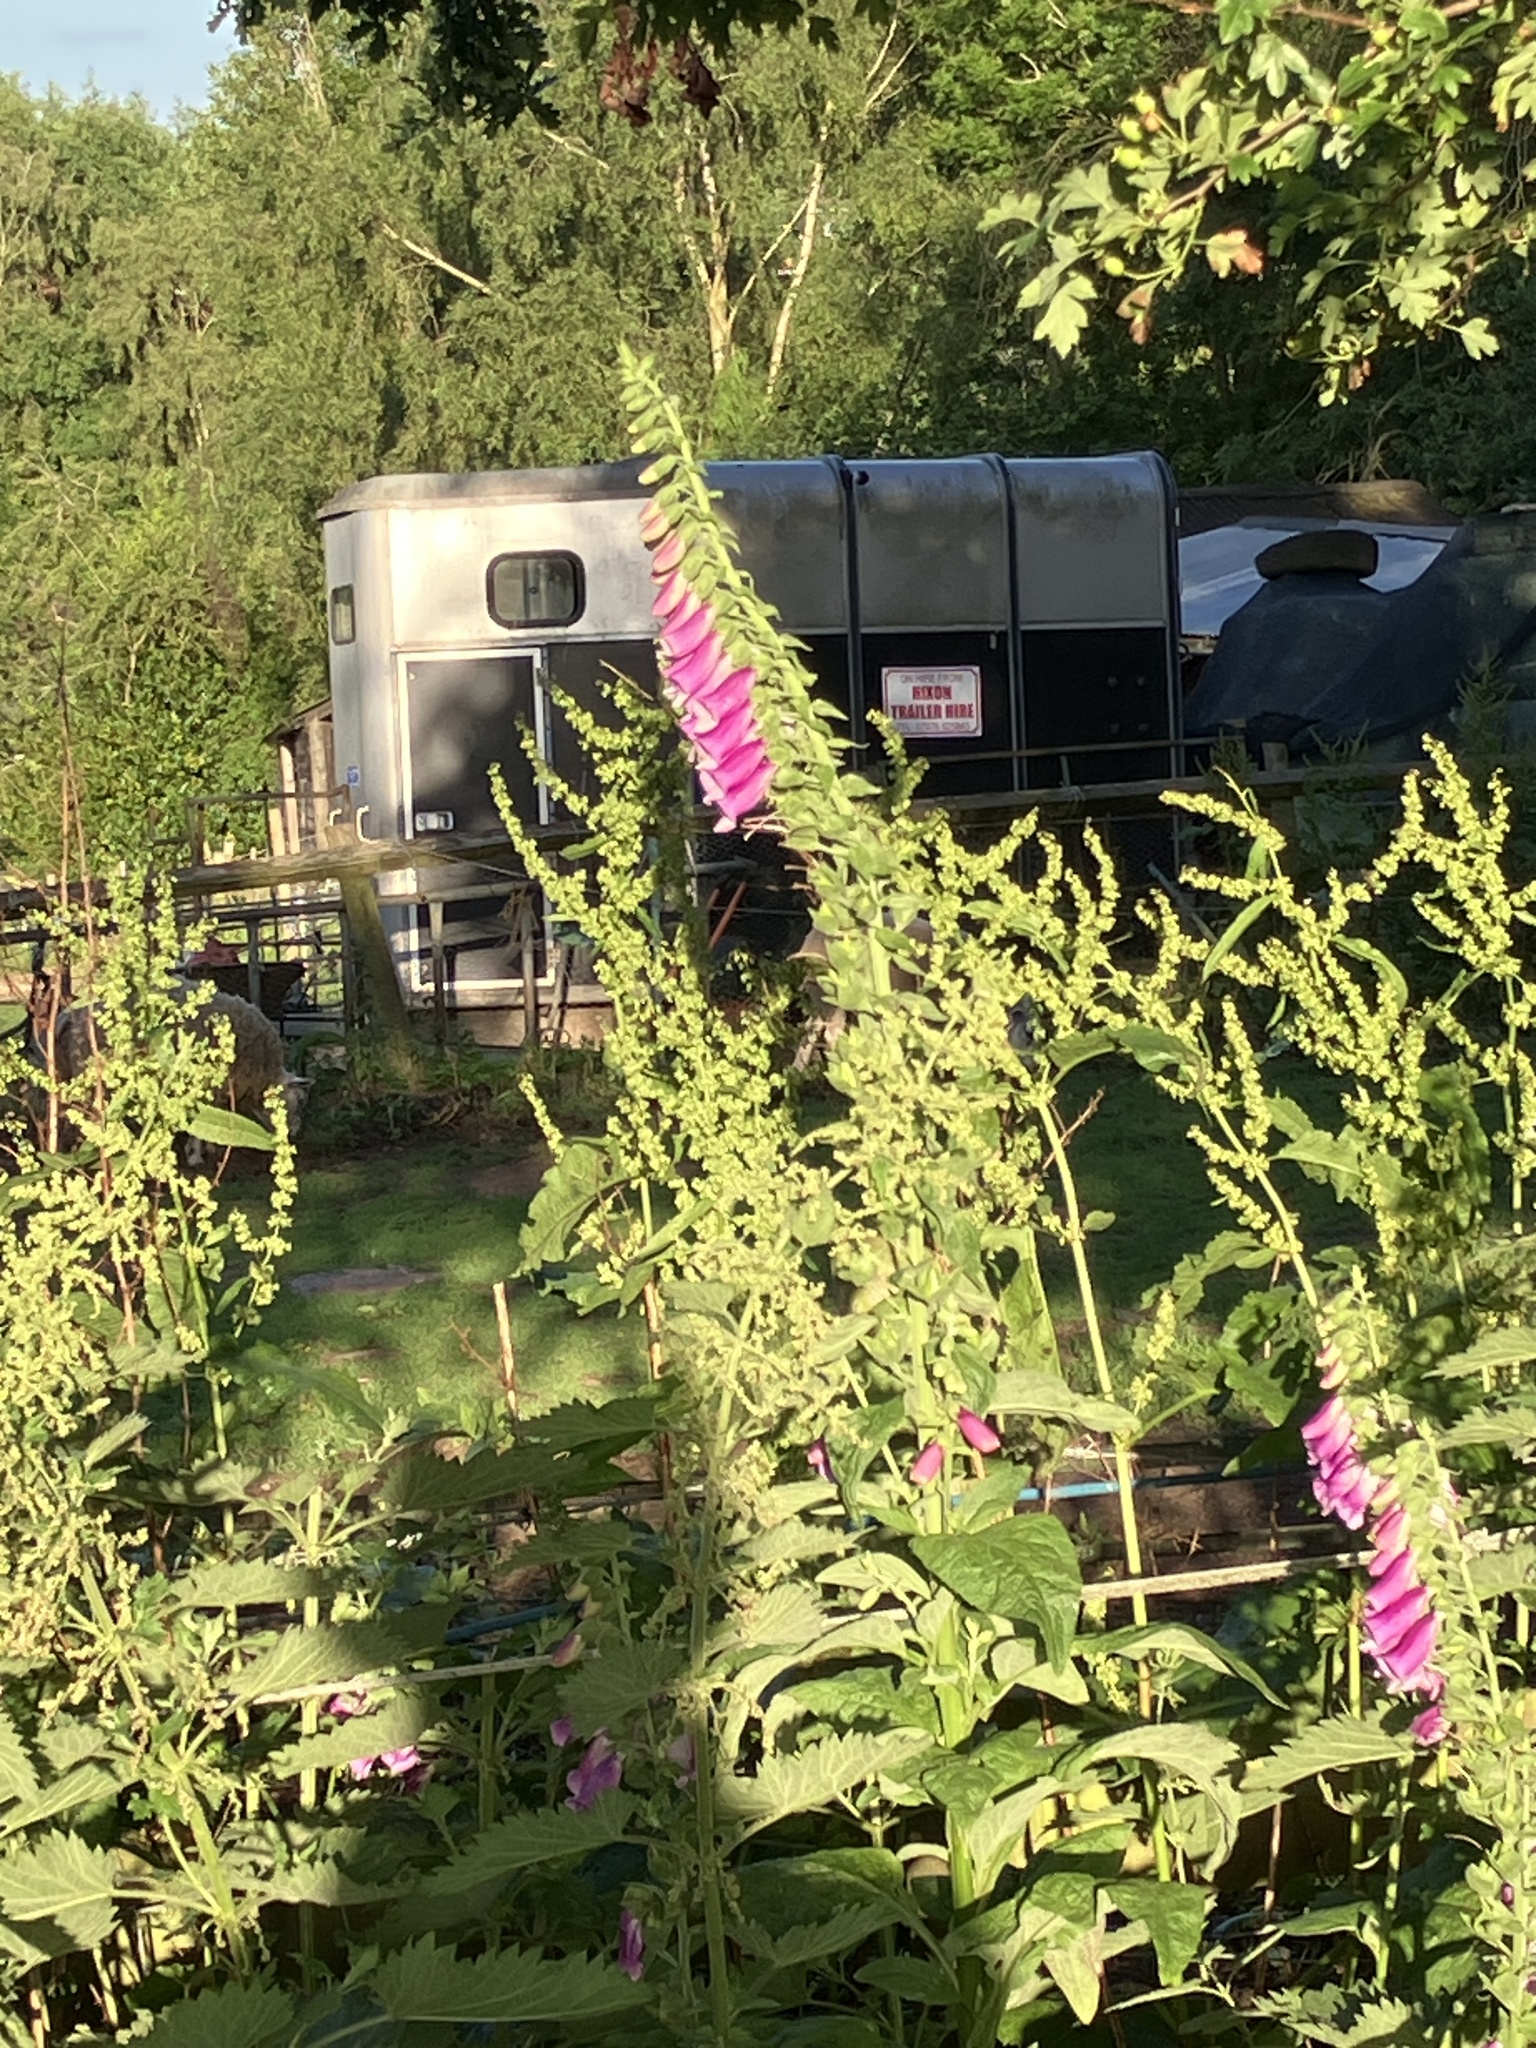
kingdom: Plantae
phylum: Tracheophyta
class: Magnoliopsida
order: Lamiales
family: Plantaginaceae
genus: Digitalis
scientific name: Digitalis purpurea
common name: Foxglove
